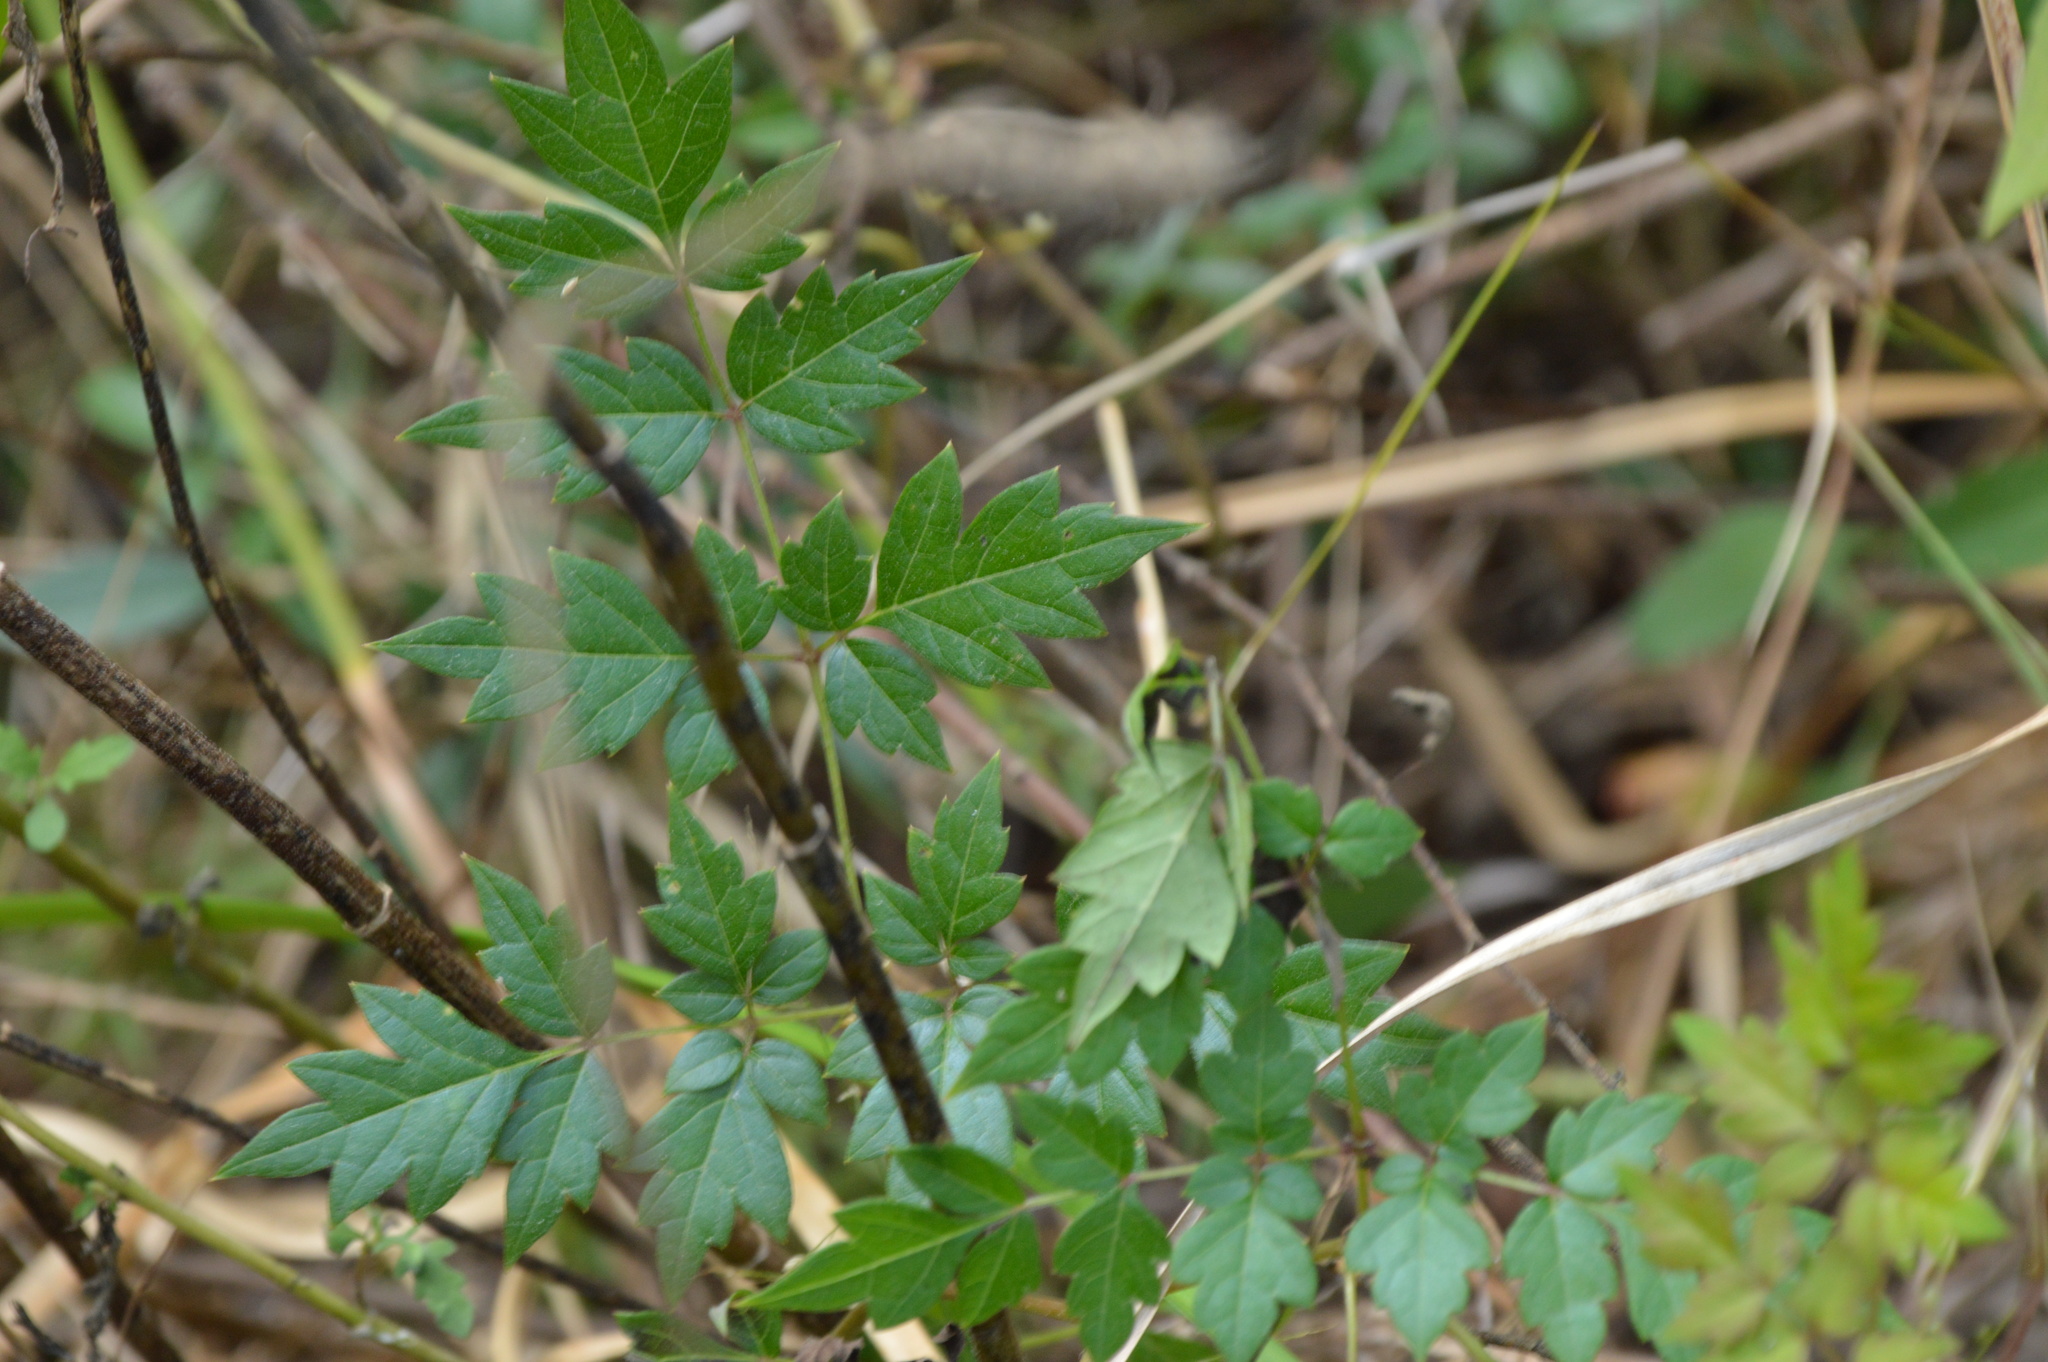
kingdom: Plantae
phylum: Tracheophyta
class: Magnoliopsida
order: Vitales
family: Vitaceae
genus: Nekemias
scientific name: Nekemias arborea
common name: Peppervine
